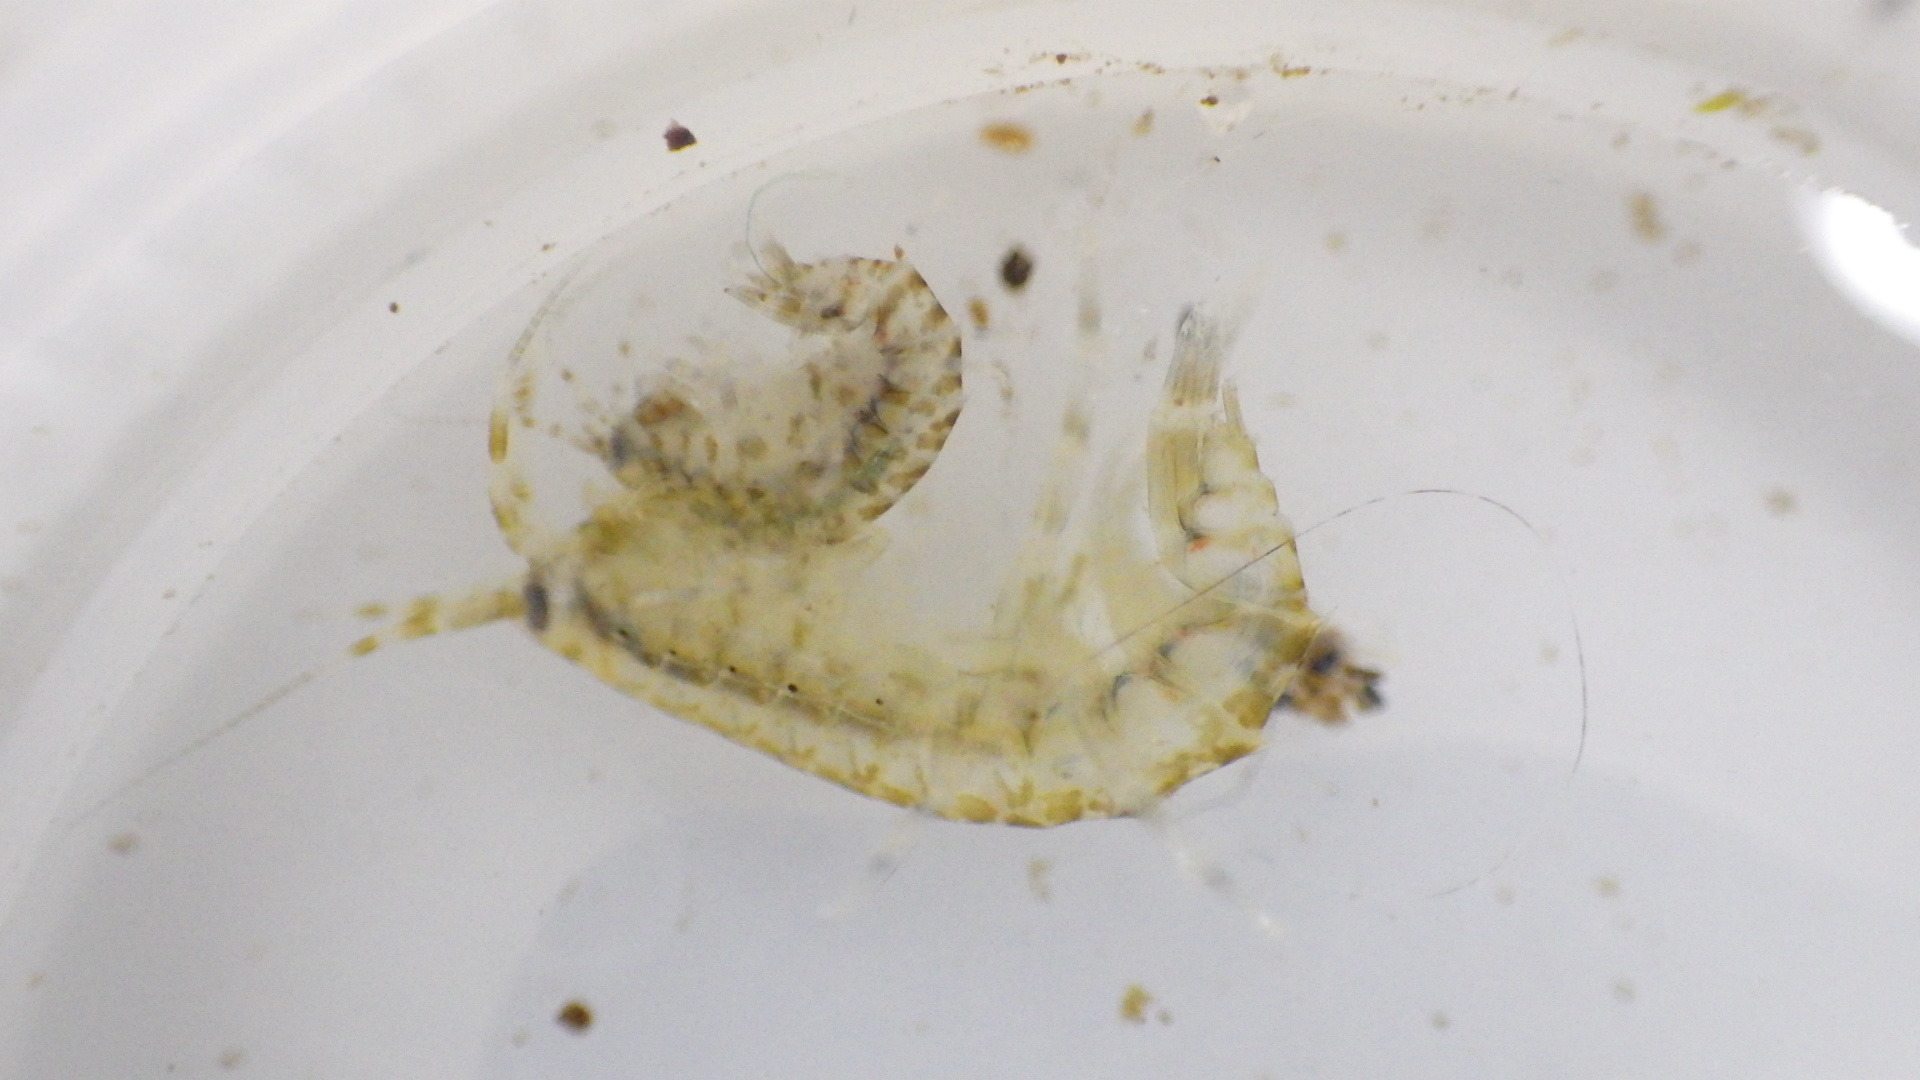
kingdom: Animalia
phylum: Arthropoda
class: Malacostraca
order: Amphipoda
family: Gammaridae
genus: Gammarus
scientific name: Gammarus mucronatus
